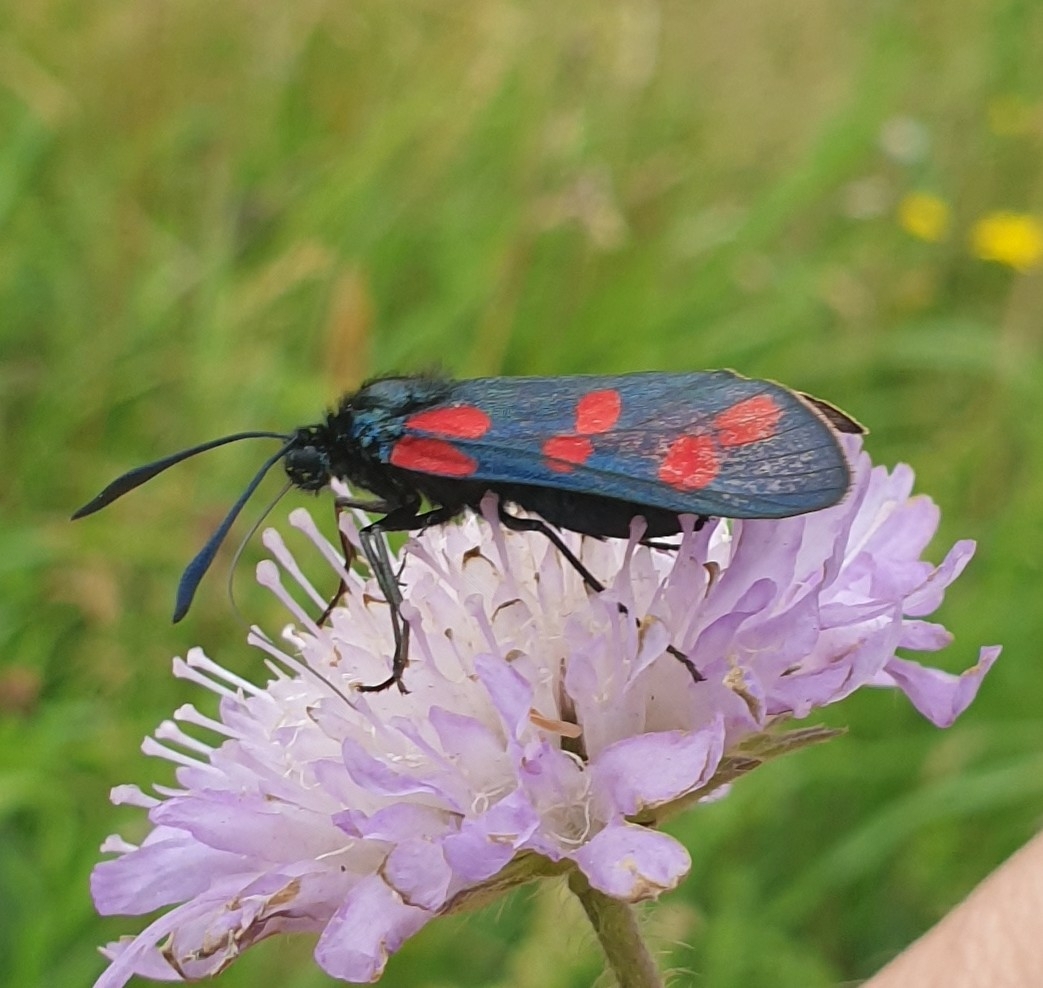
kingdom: Animalia
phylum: Arthropoda
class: Insecta
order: Lepidoptera
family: Zygaenidae
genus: Zygaena
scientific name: Zygaena filipendulae
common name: Six-spot burnet
